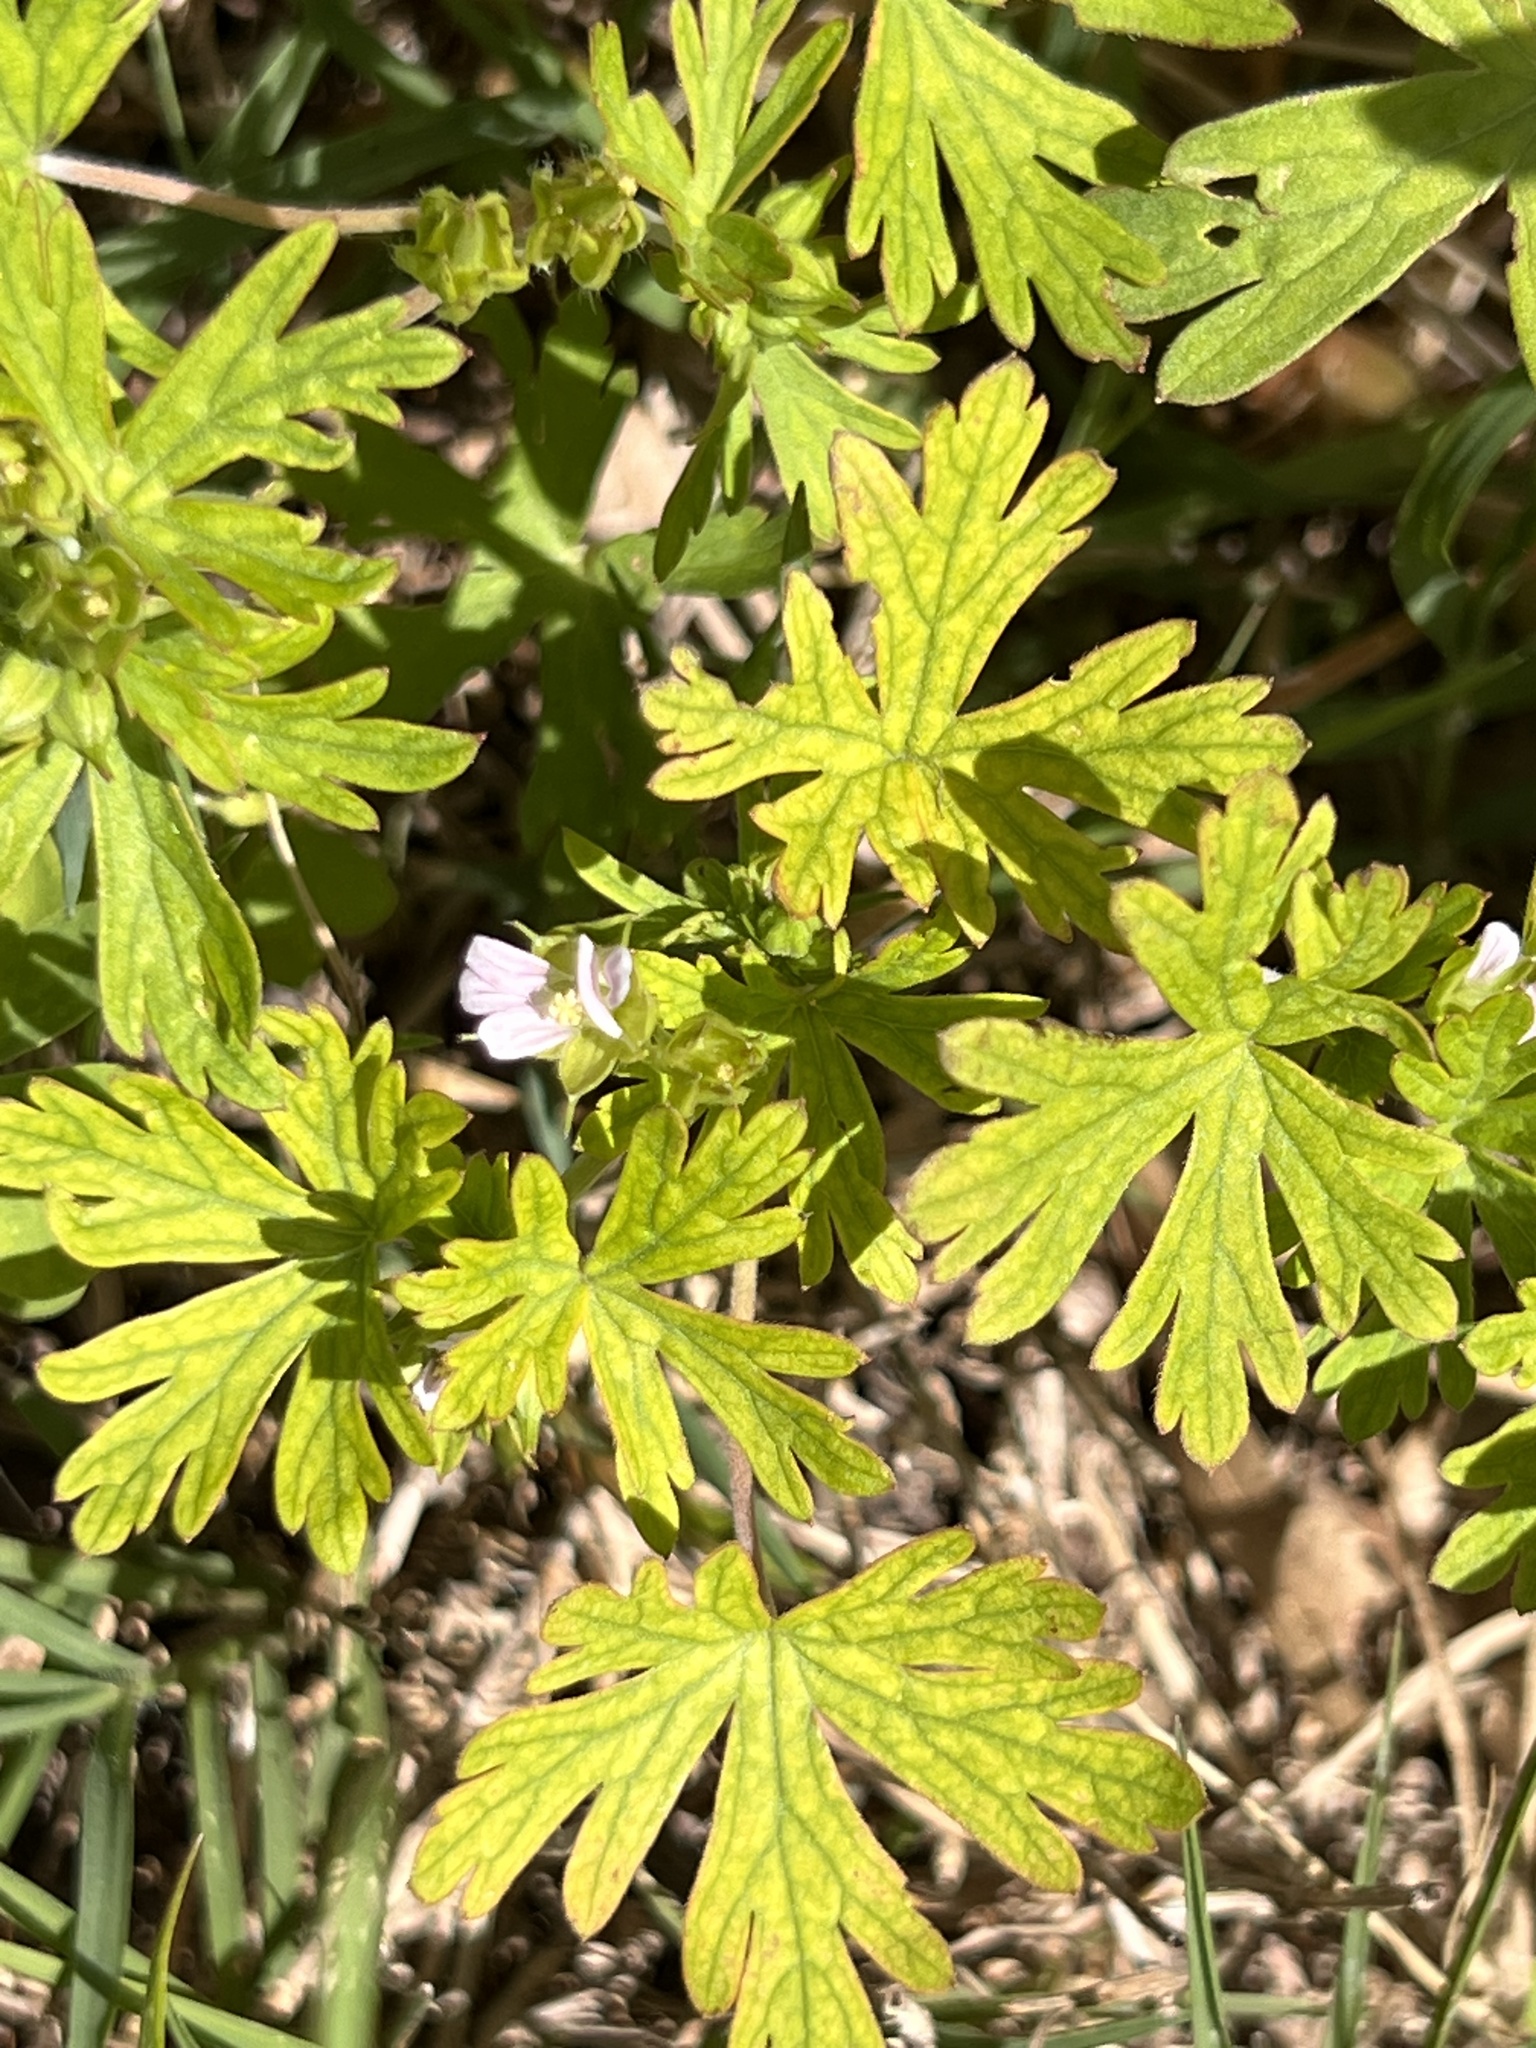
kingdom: Plantae
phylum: Tracheophyta
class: Magnoliopsida
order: Geraniales
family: Geraniaceae
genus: Geranium
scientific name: Geranium carolinianum
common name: Carolina crane's-bill
